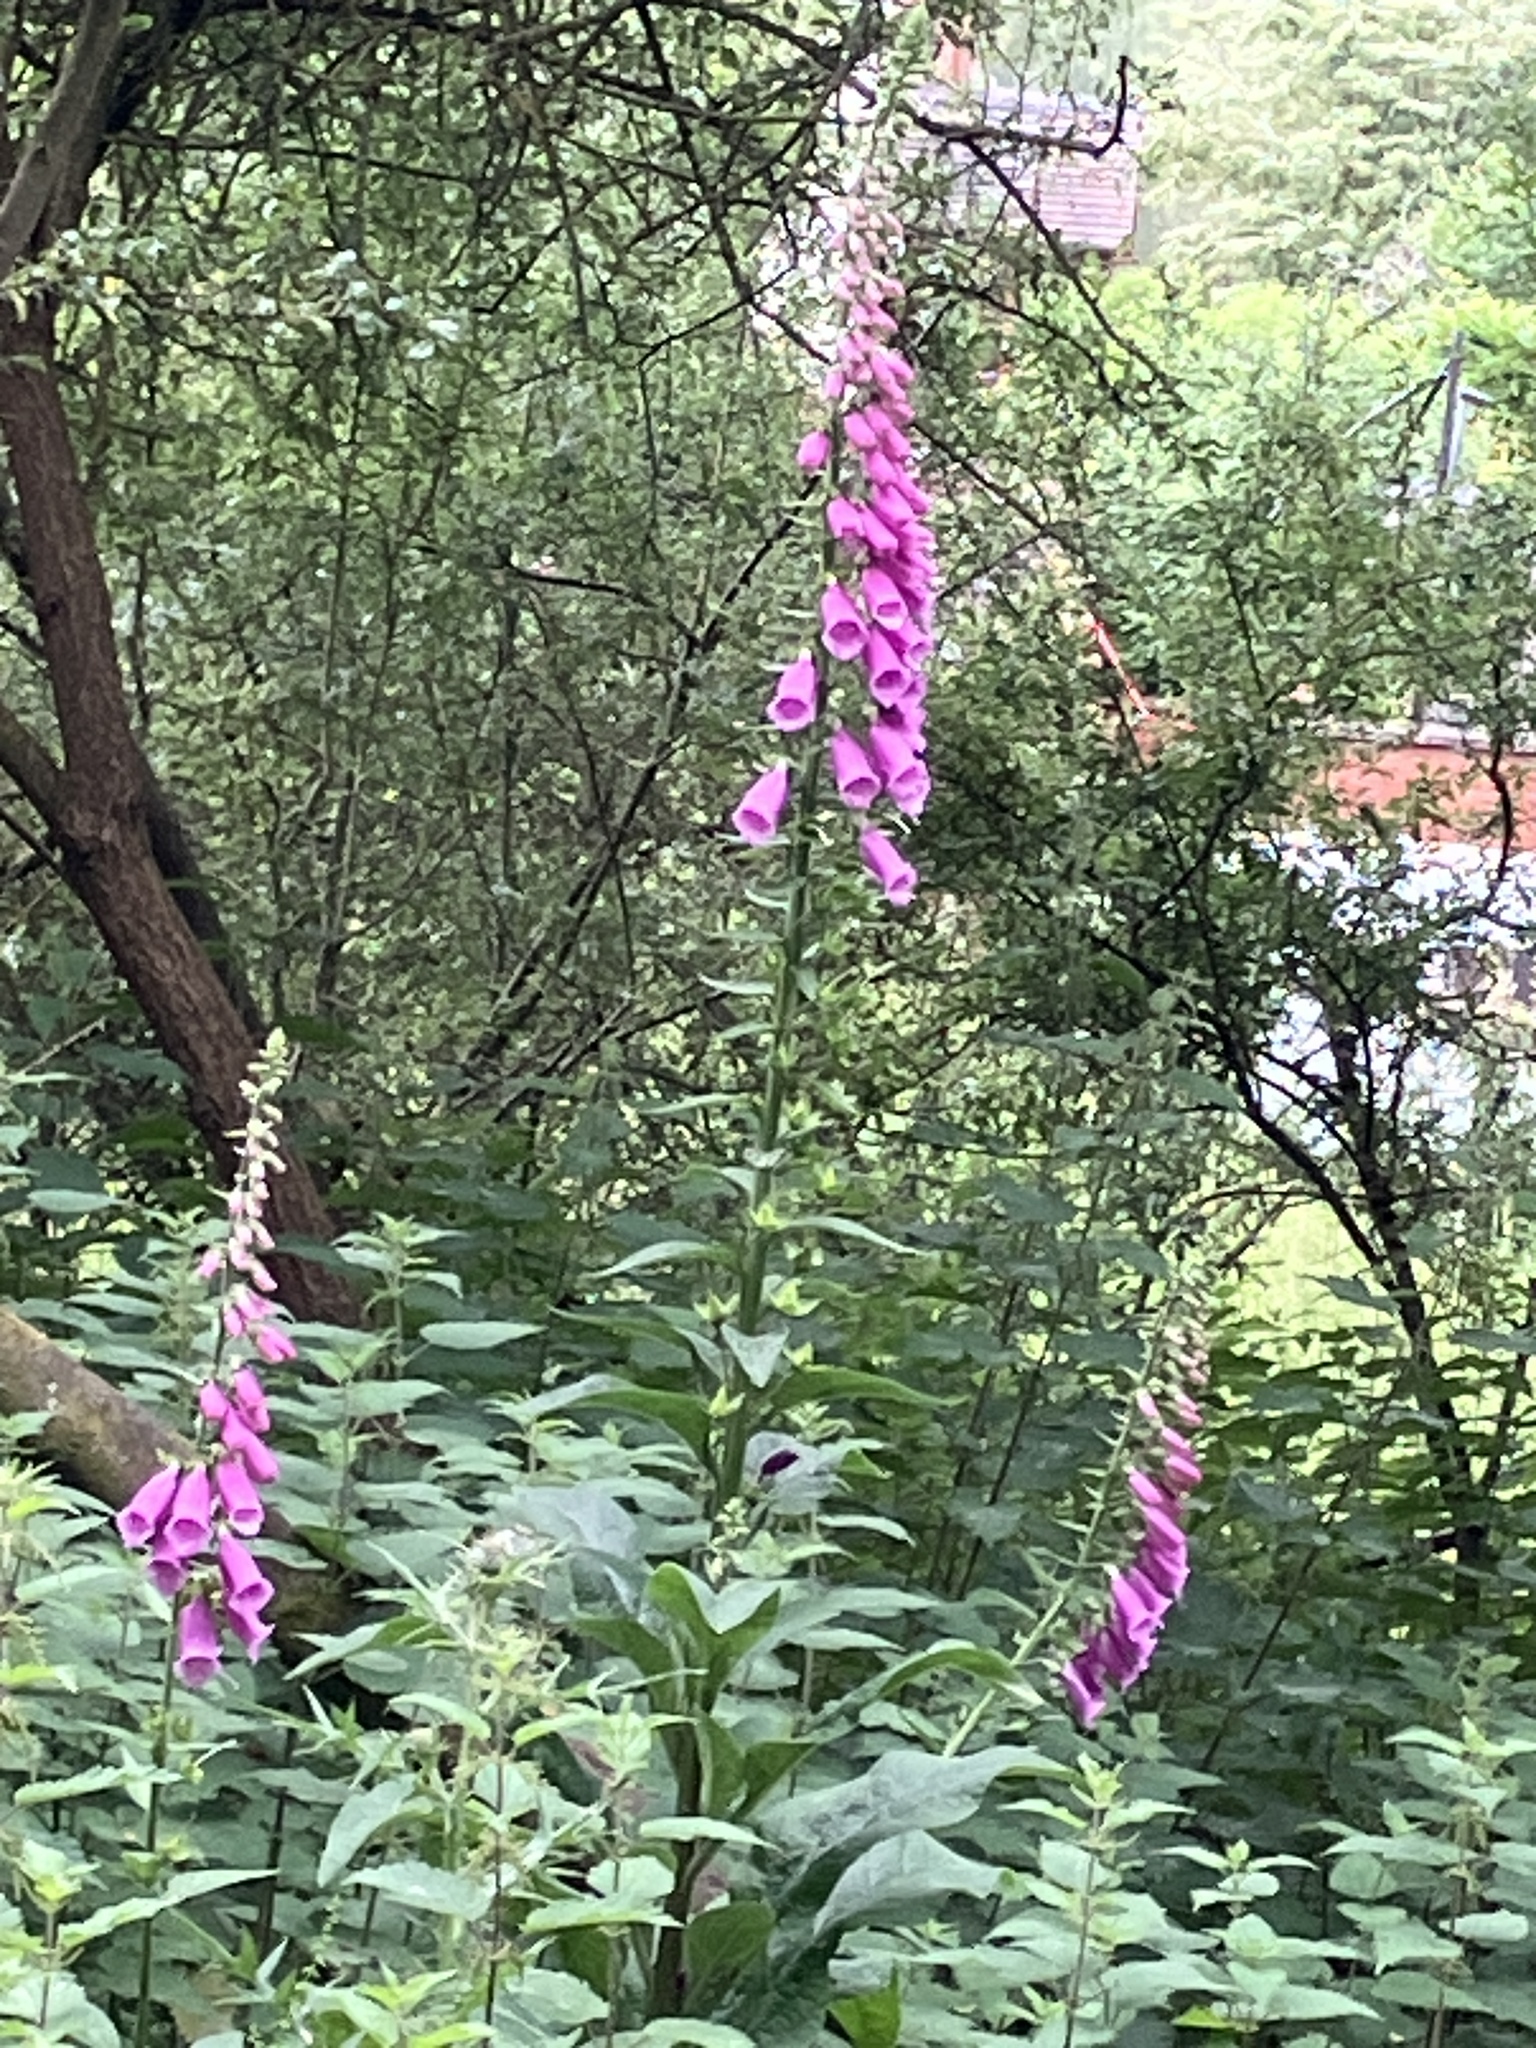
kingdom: Plantae
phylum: Tracheophyta
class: Magnoliopsida
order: Lamiales
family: Plantaginaceae
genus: Digitalis
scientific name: Digitalis purpurea
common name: Foxglove
